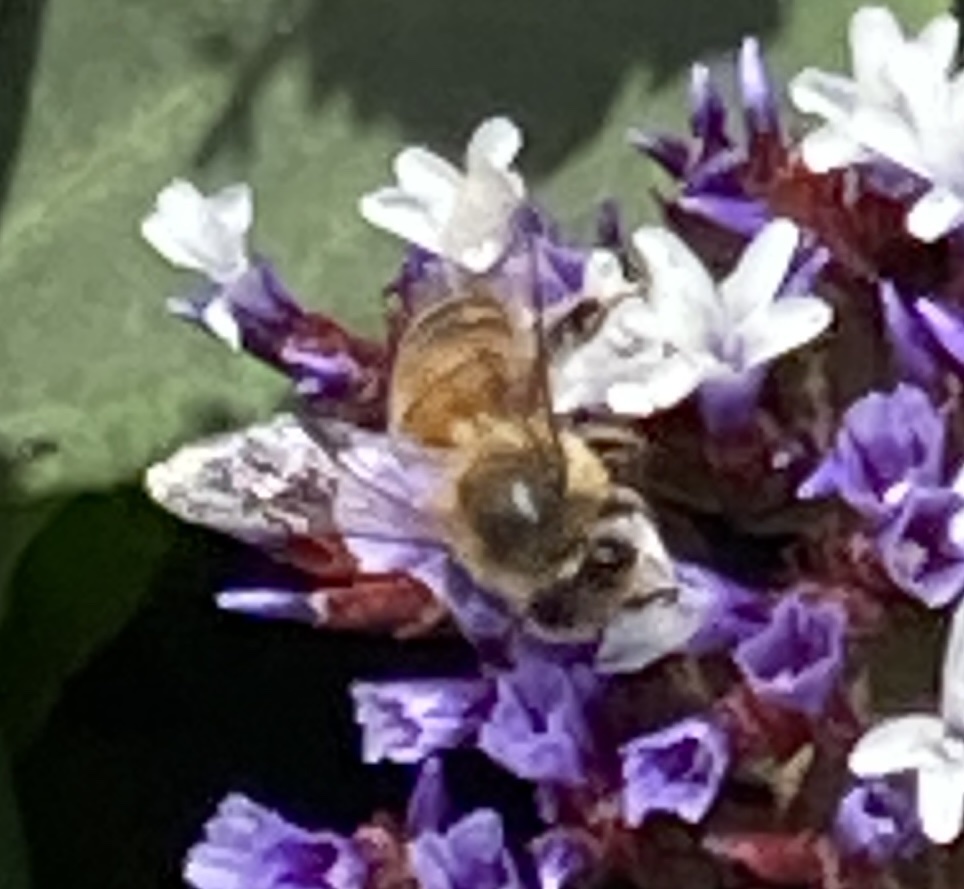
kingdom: Animalia
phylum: Arthropoda
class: Insecta
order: Hymenoptera
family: Apidae
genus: Apis
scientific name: Apis mellifera
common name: Honey bee
